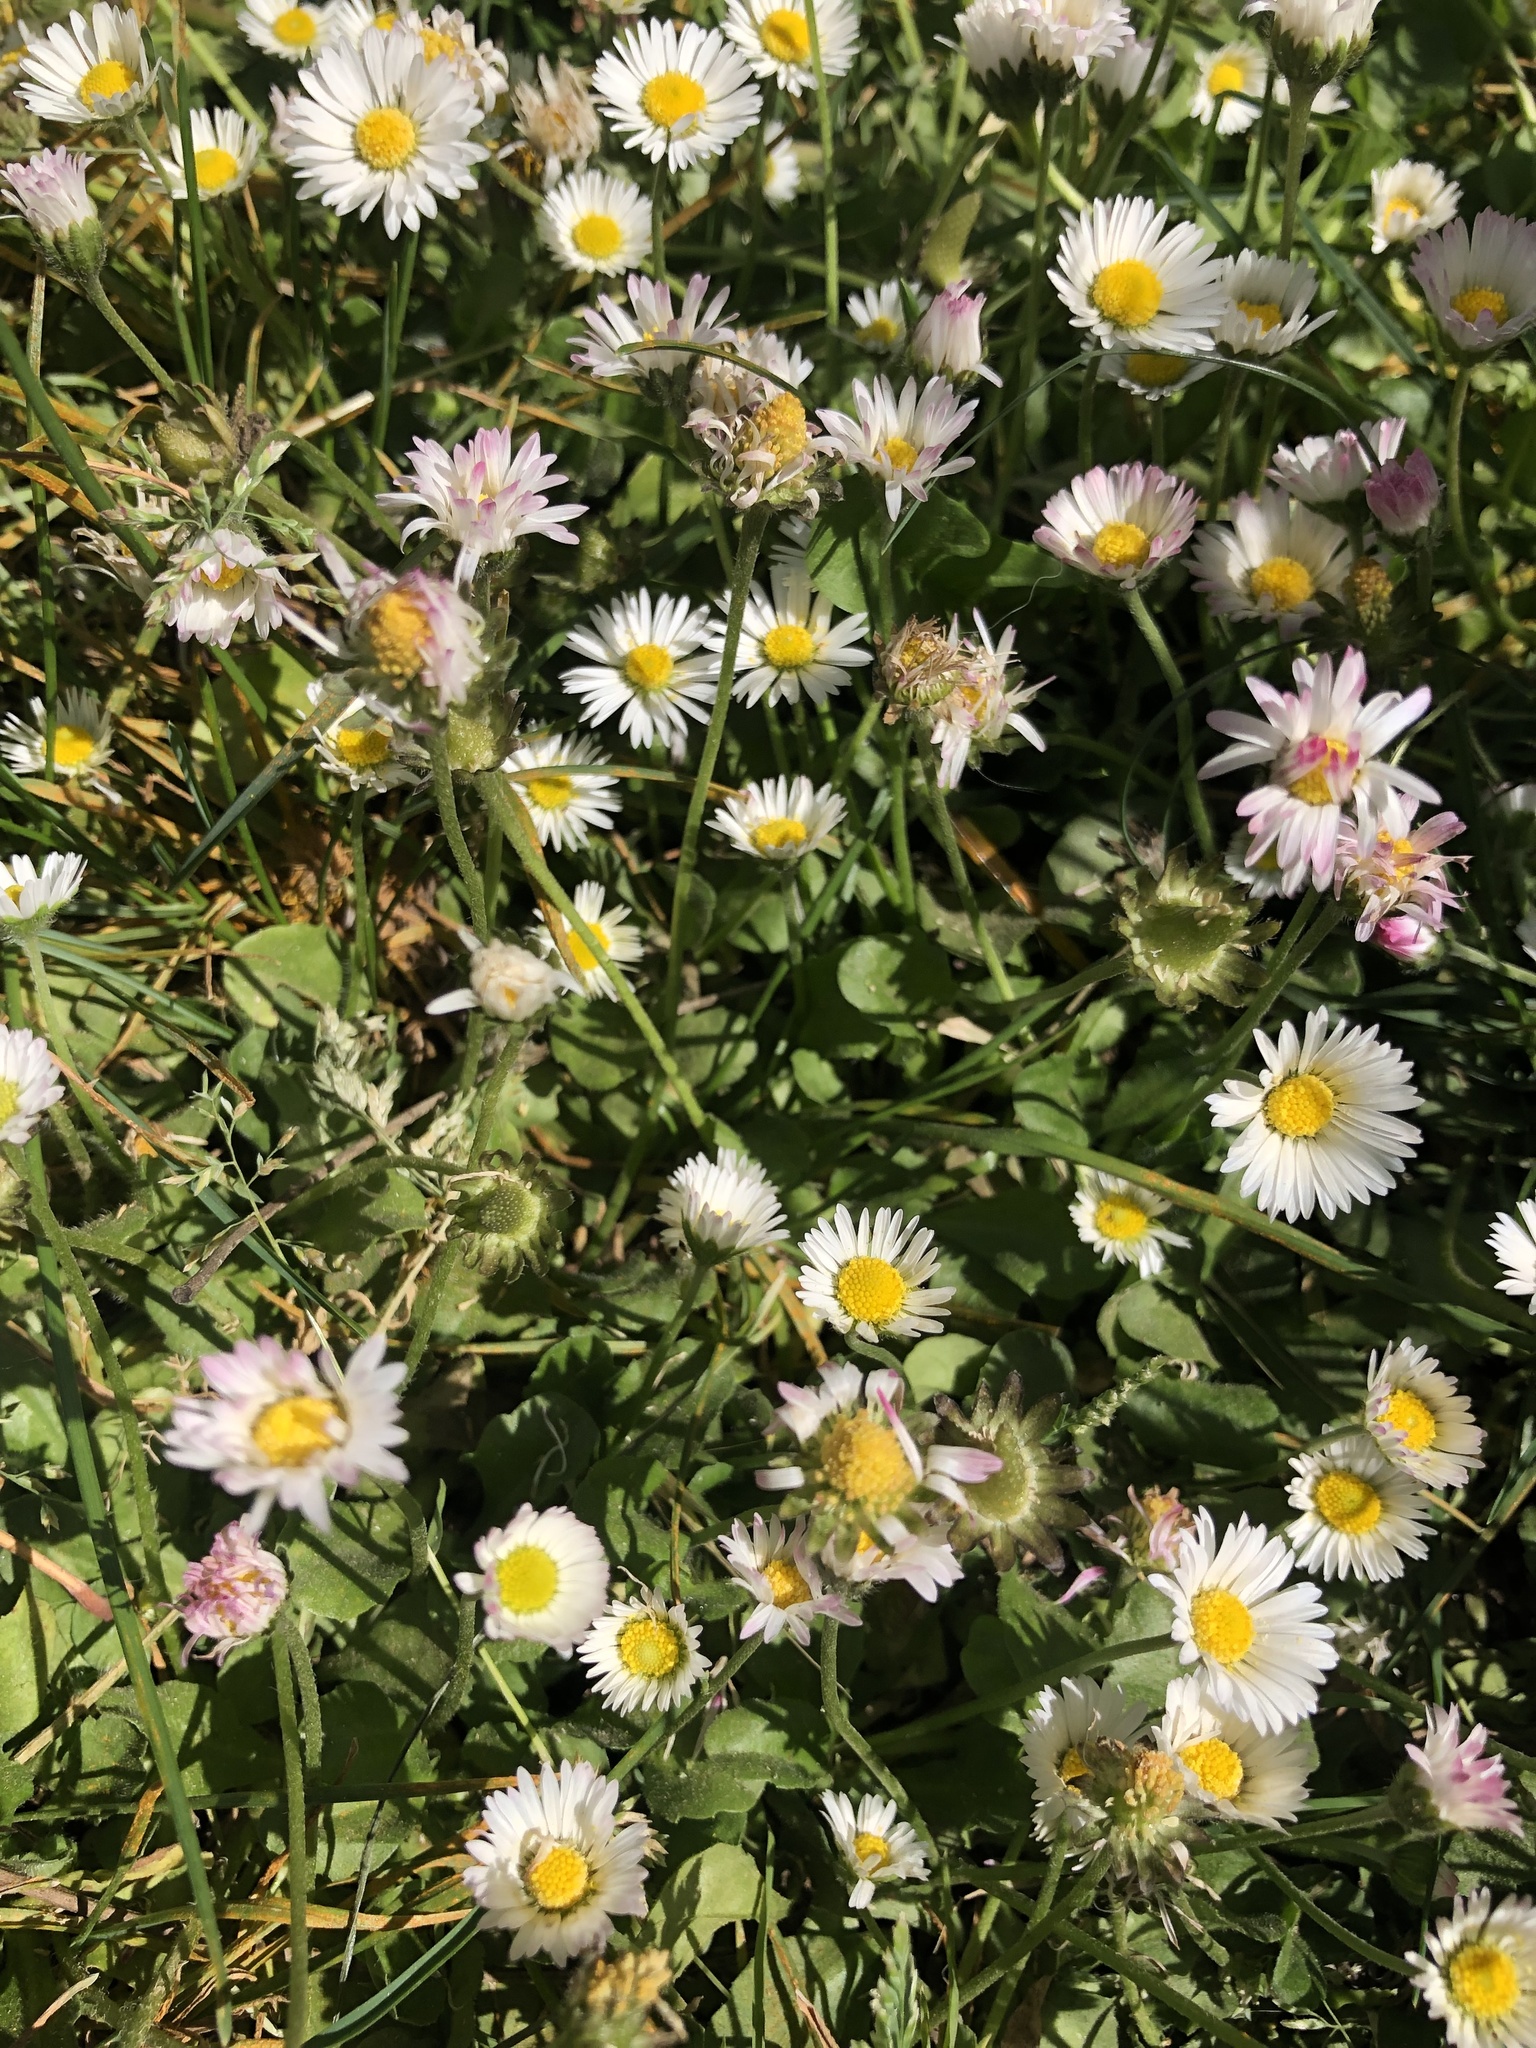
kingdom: Plantae
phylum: Tracheophyta
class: Magnoliopsida
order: Asterales
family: Asteraceae
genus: Bellis
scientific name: Bellis perennis
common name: Lawndaisy
